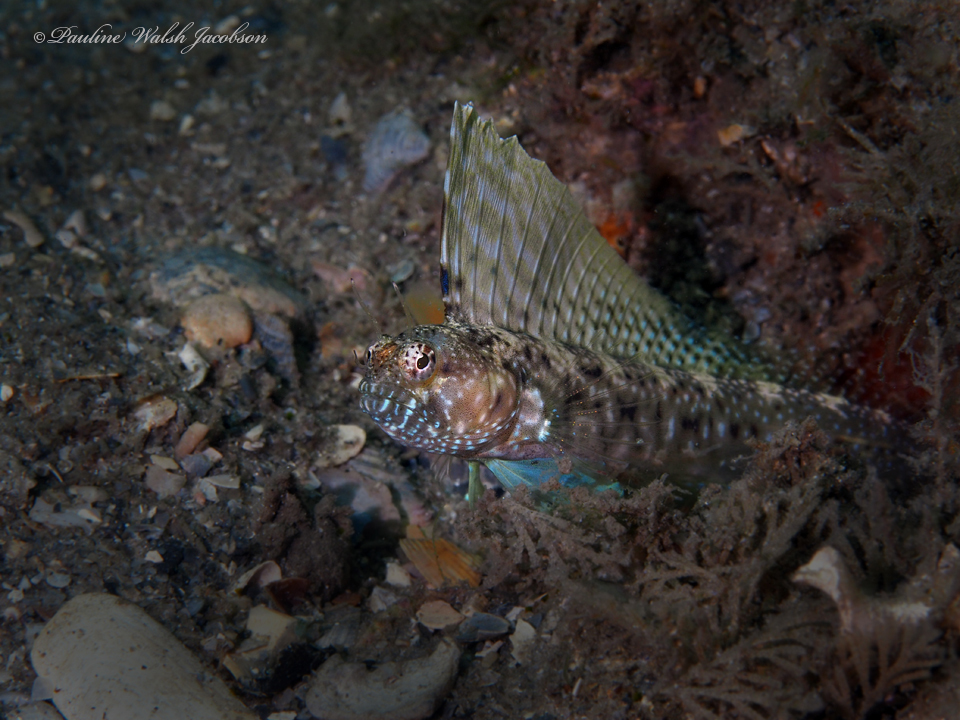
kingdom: Animalia
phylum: Chordata
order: Perciformes
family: Chaenopsidae
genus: Emblemaria
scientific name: Emblemaria pandionis
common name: Sailfin blenny
